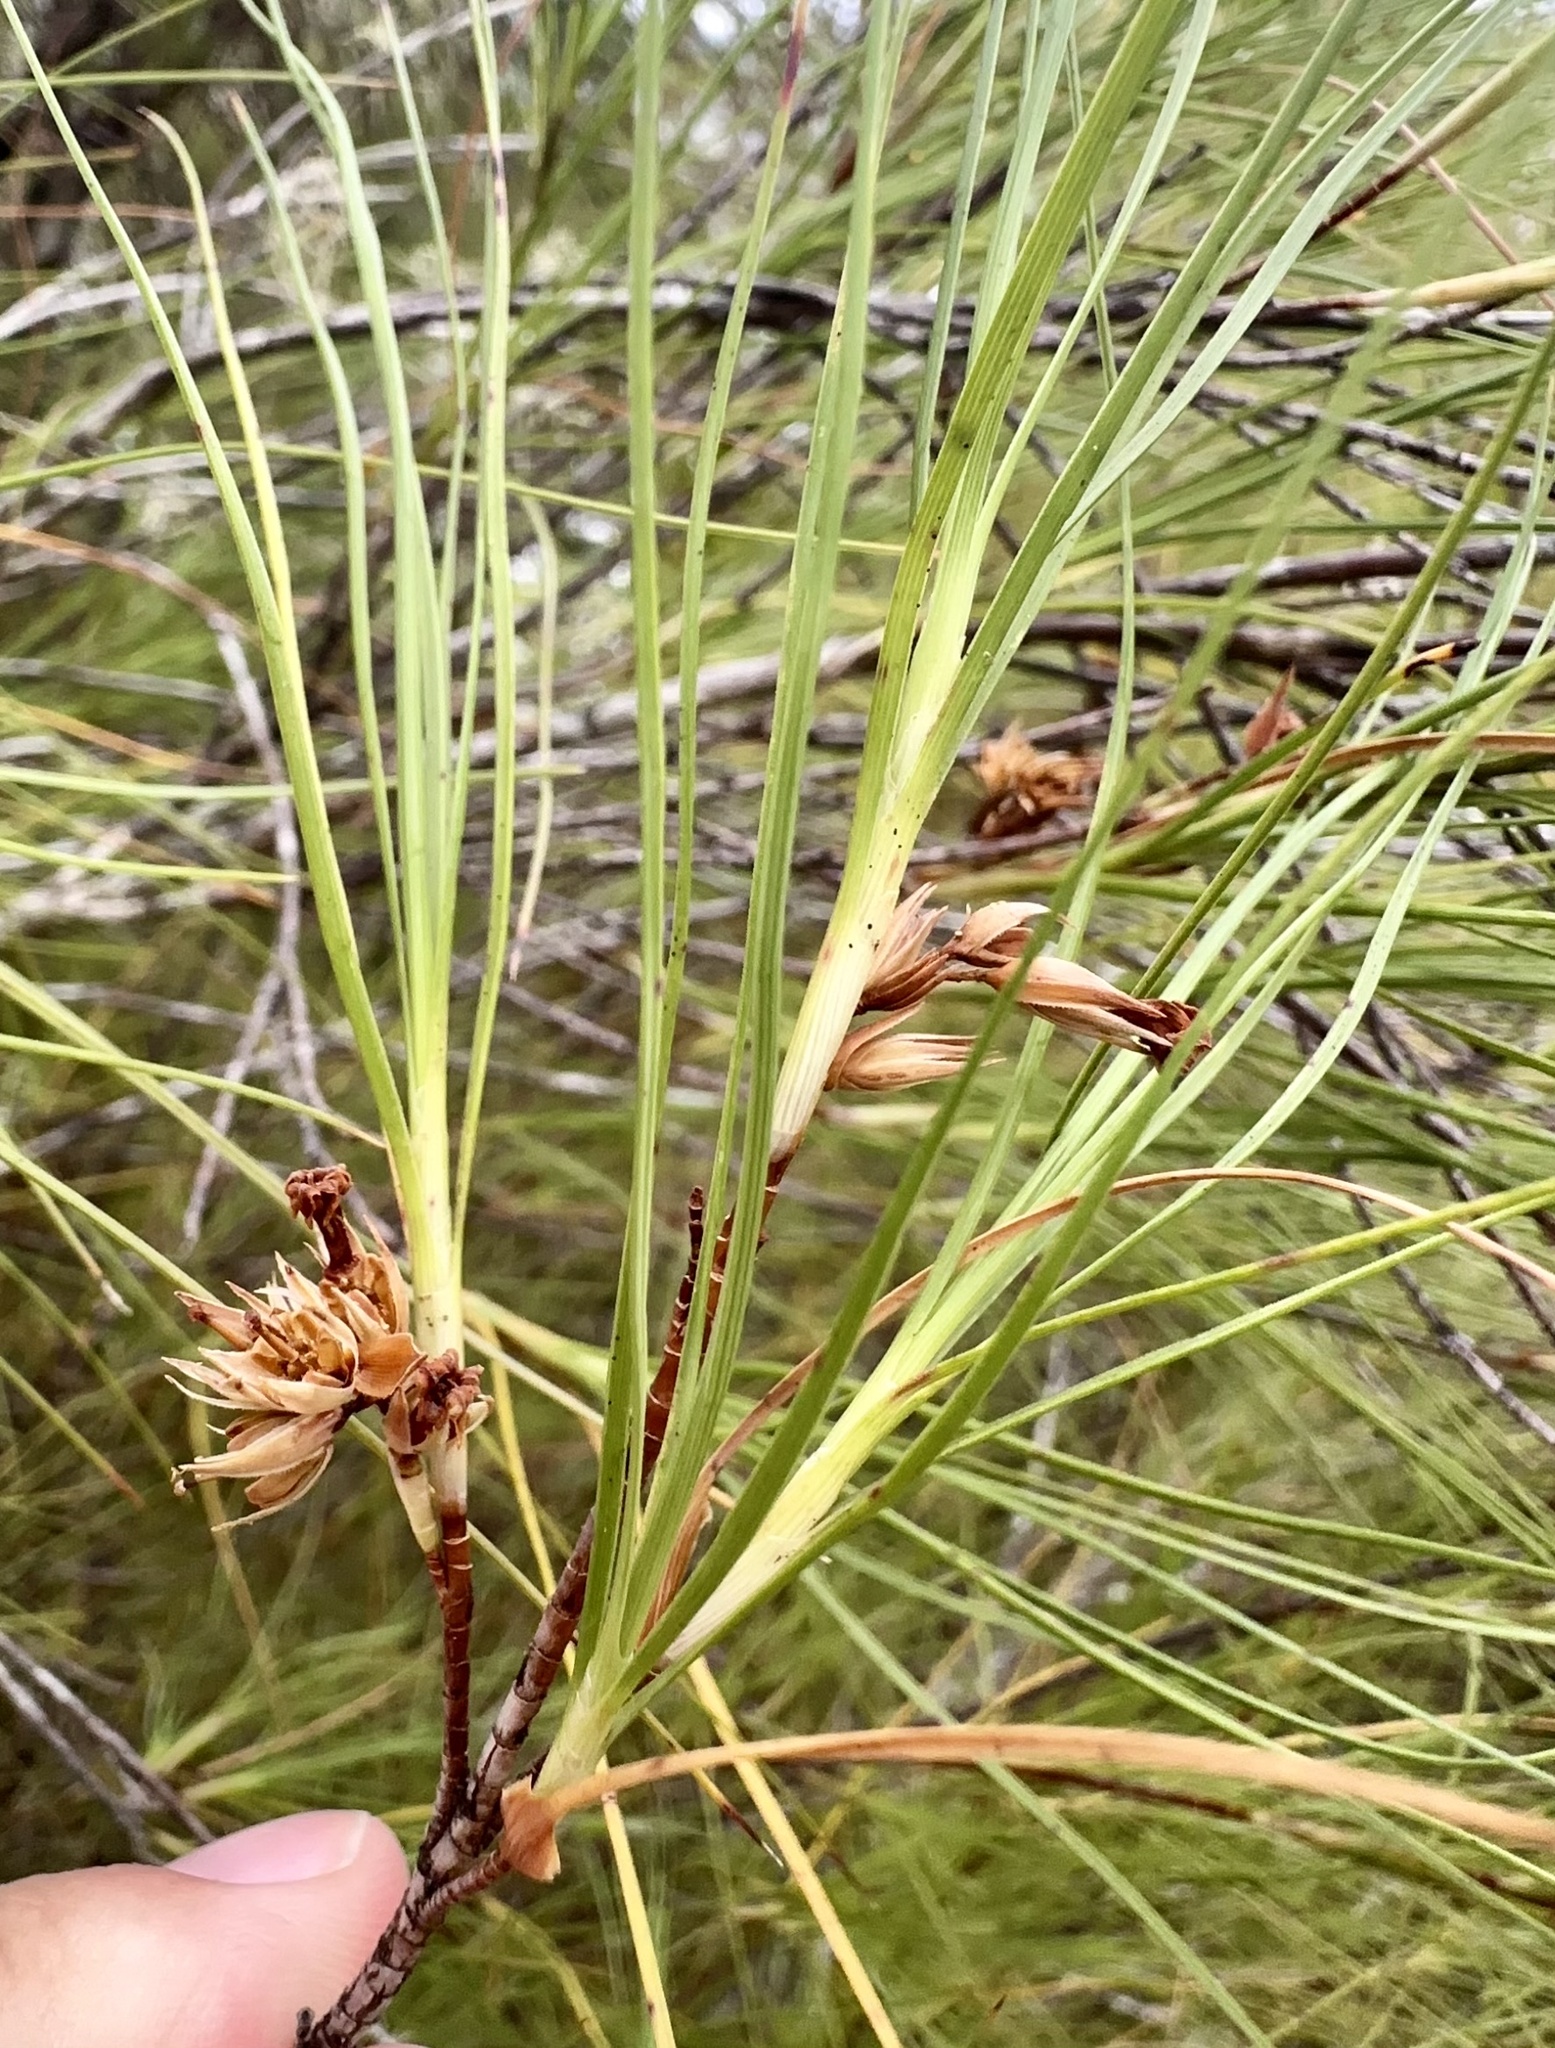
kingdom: Plantae
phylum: Tracheophyta
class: Magnoliopsida
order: Ericales
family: Ericaceae
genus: Dracophyllum
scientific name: Dracophyllum longifolium
